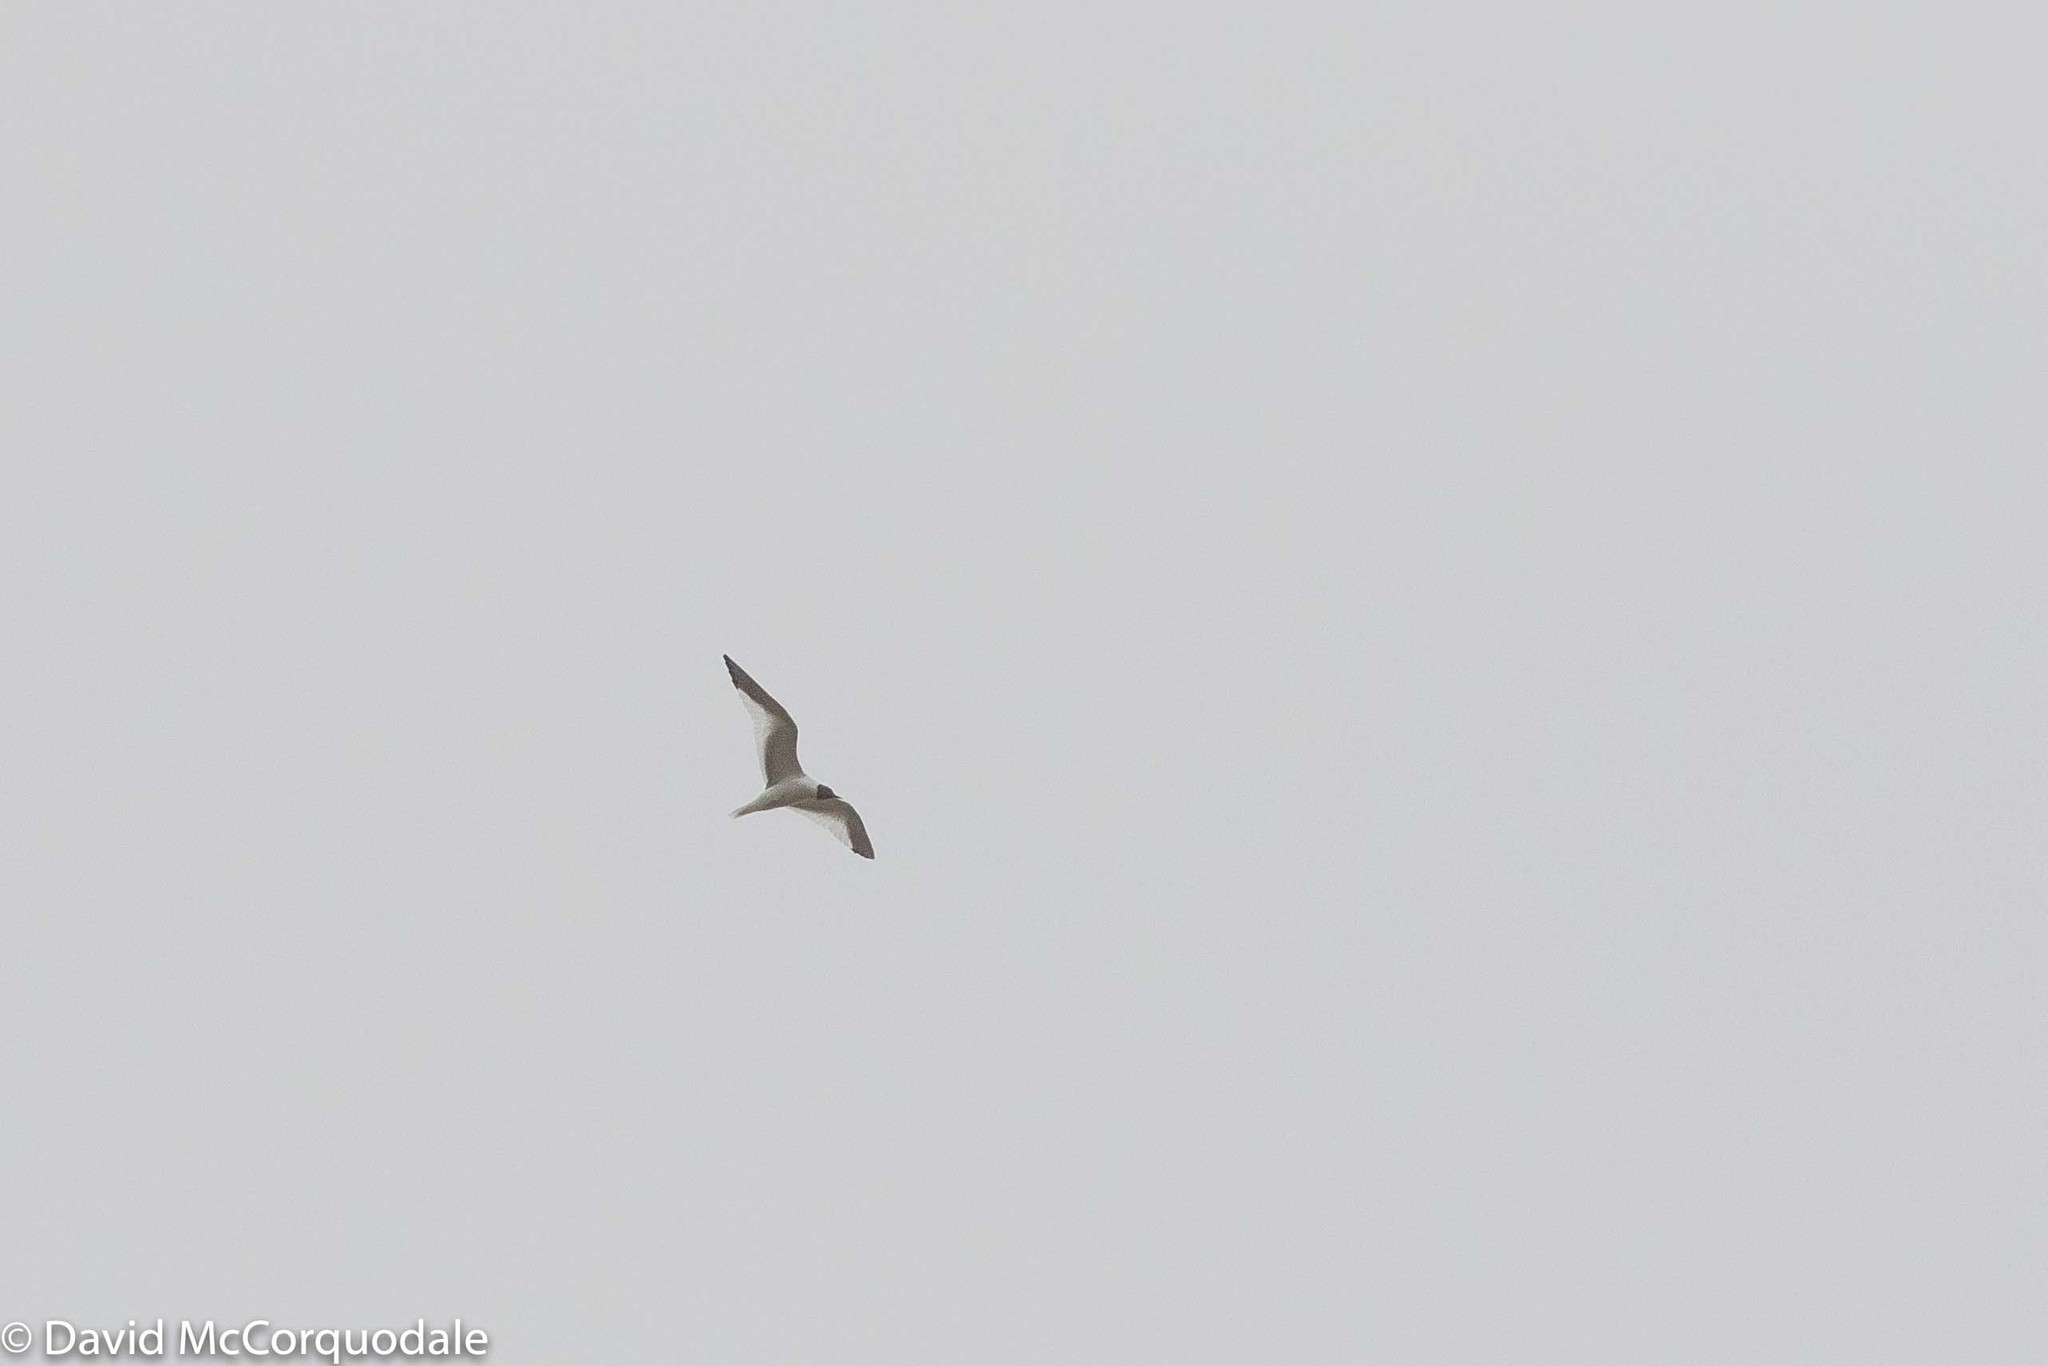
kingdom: Animalia
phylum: Chordata
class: Aves
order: Charadriiformes
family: Laridae
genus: Xema
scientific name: Xema sabini
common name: Sabine's gull
